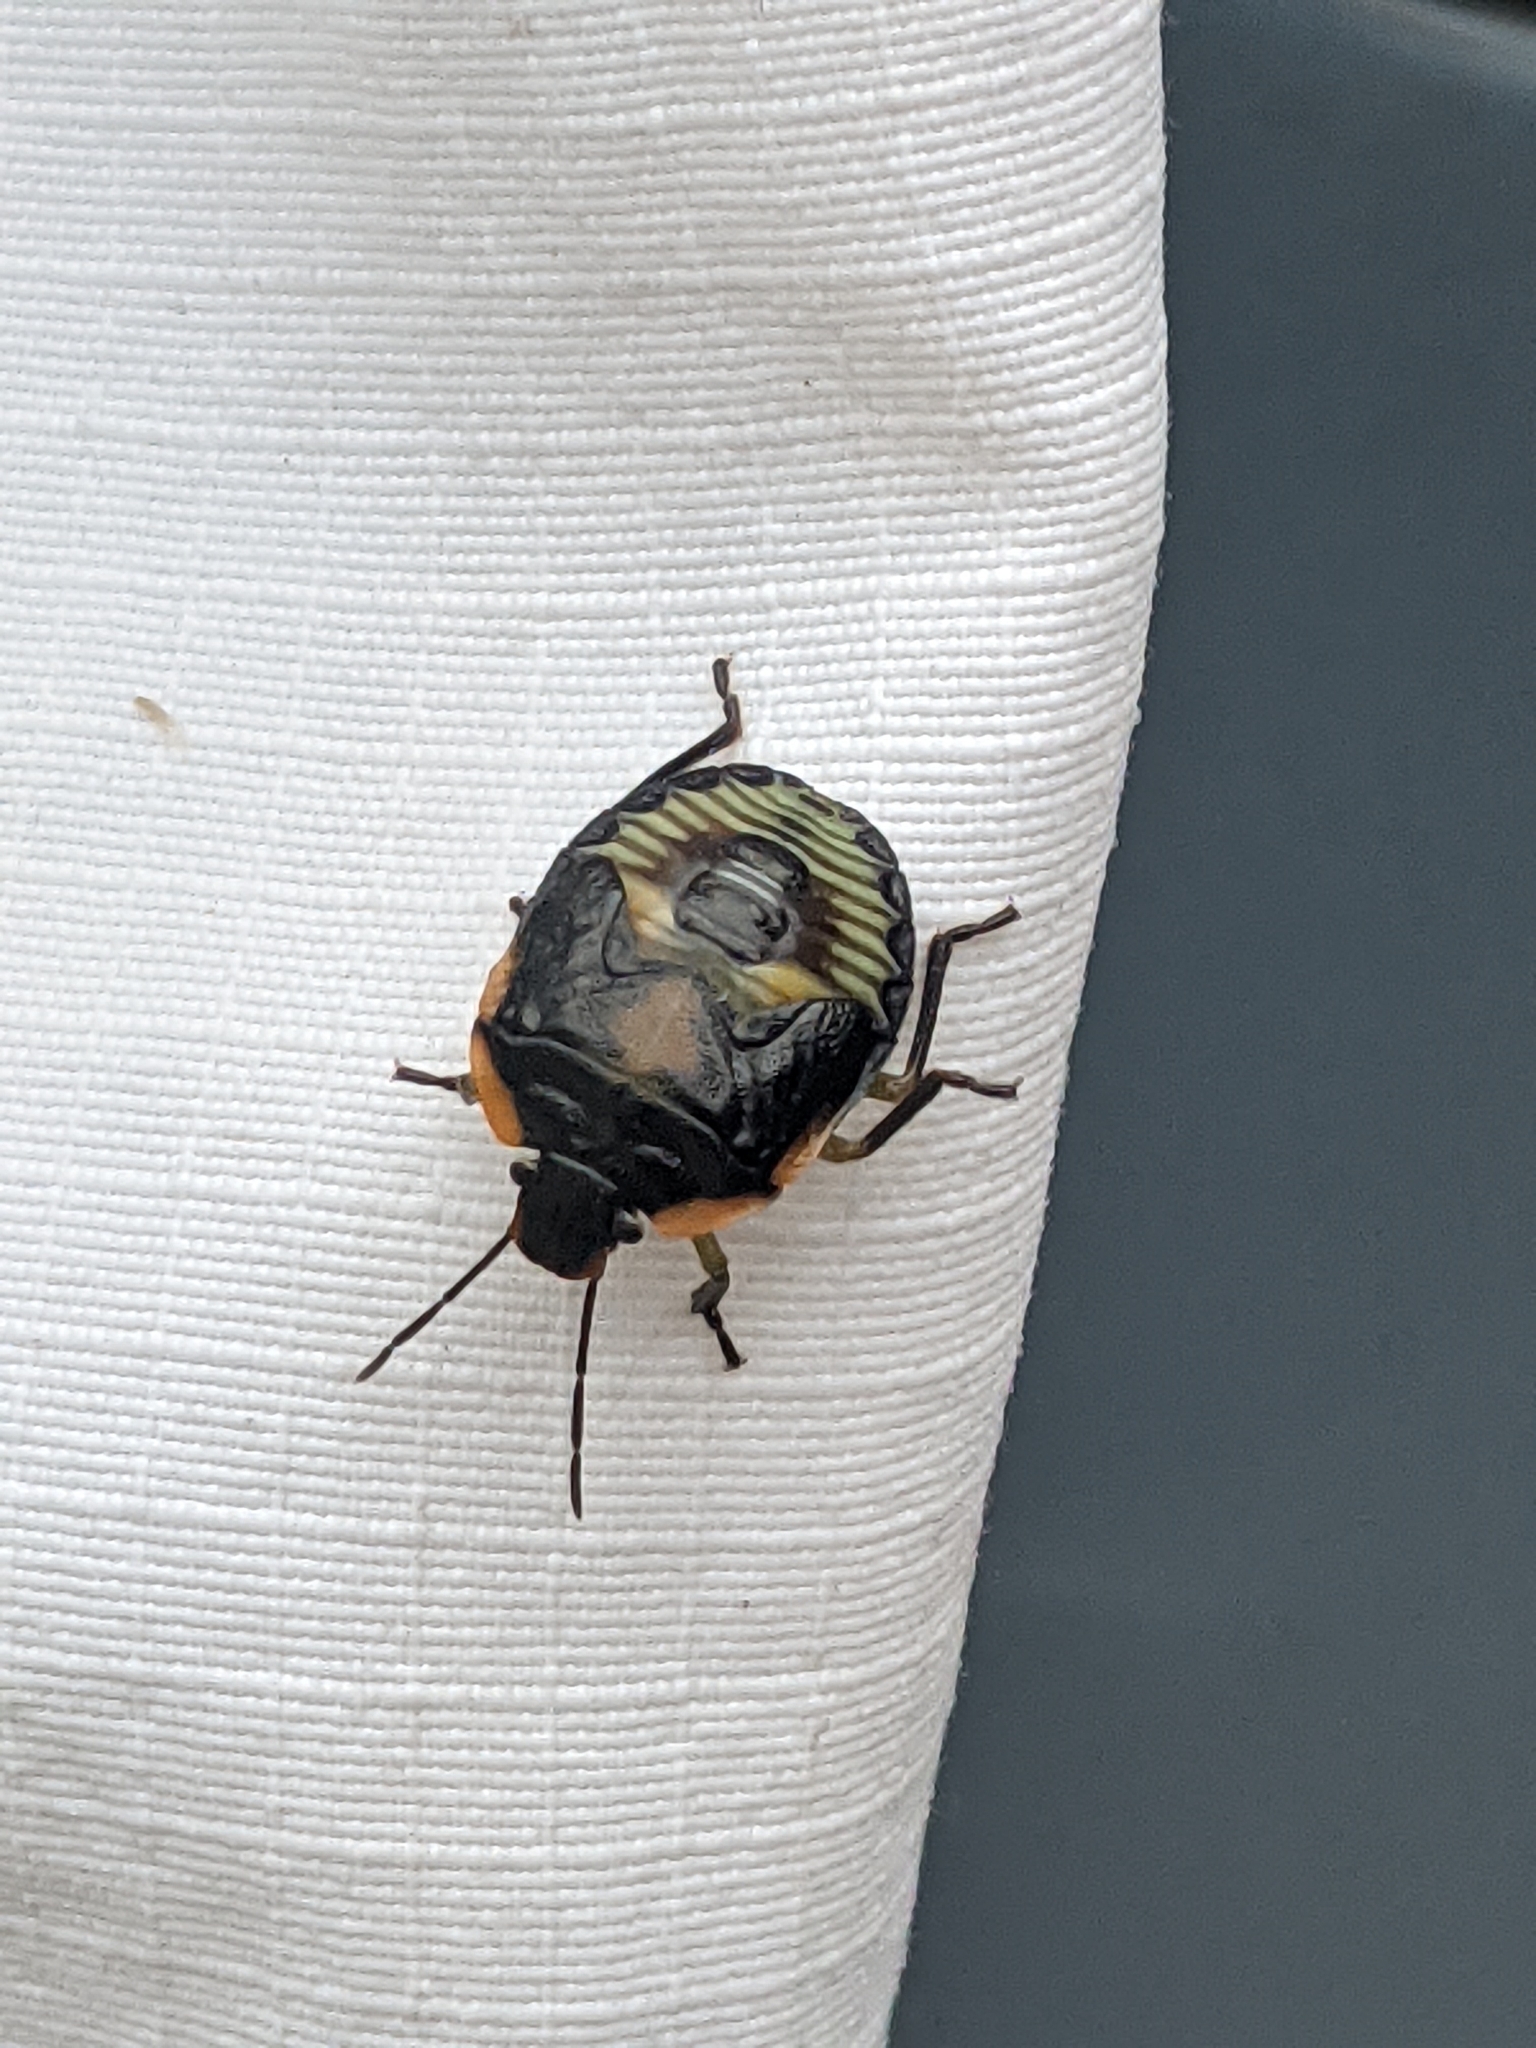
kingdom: Animalia
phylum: Arthropoda
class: Insecta
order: Hemiptera
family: Pentatomidae
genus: Chinavia
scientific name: Chinavia hilaris
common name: Green stink bug
